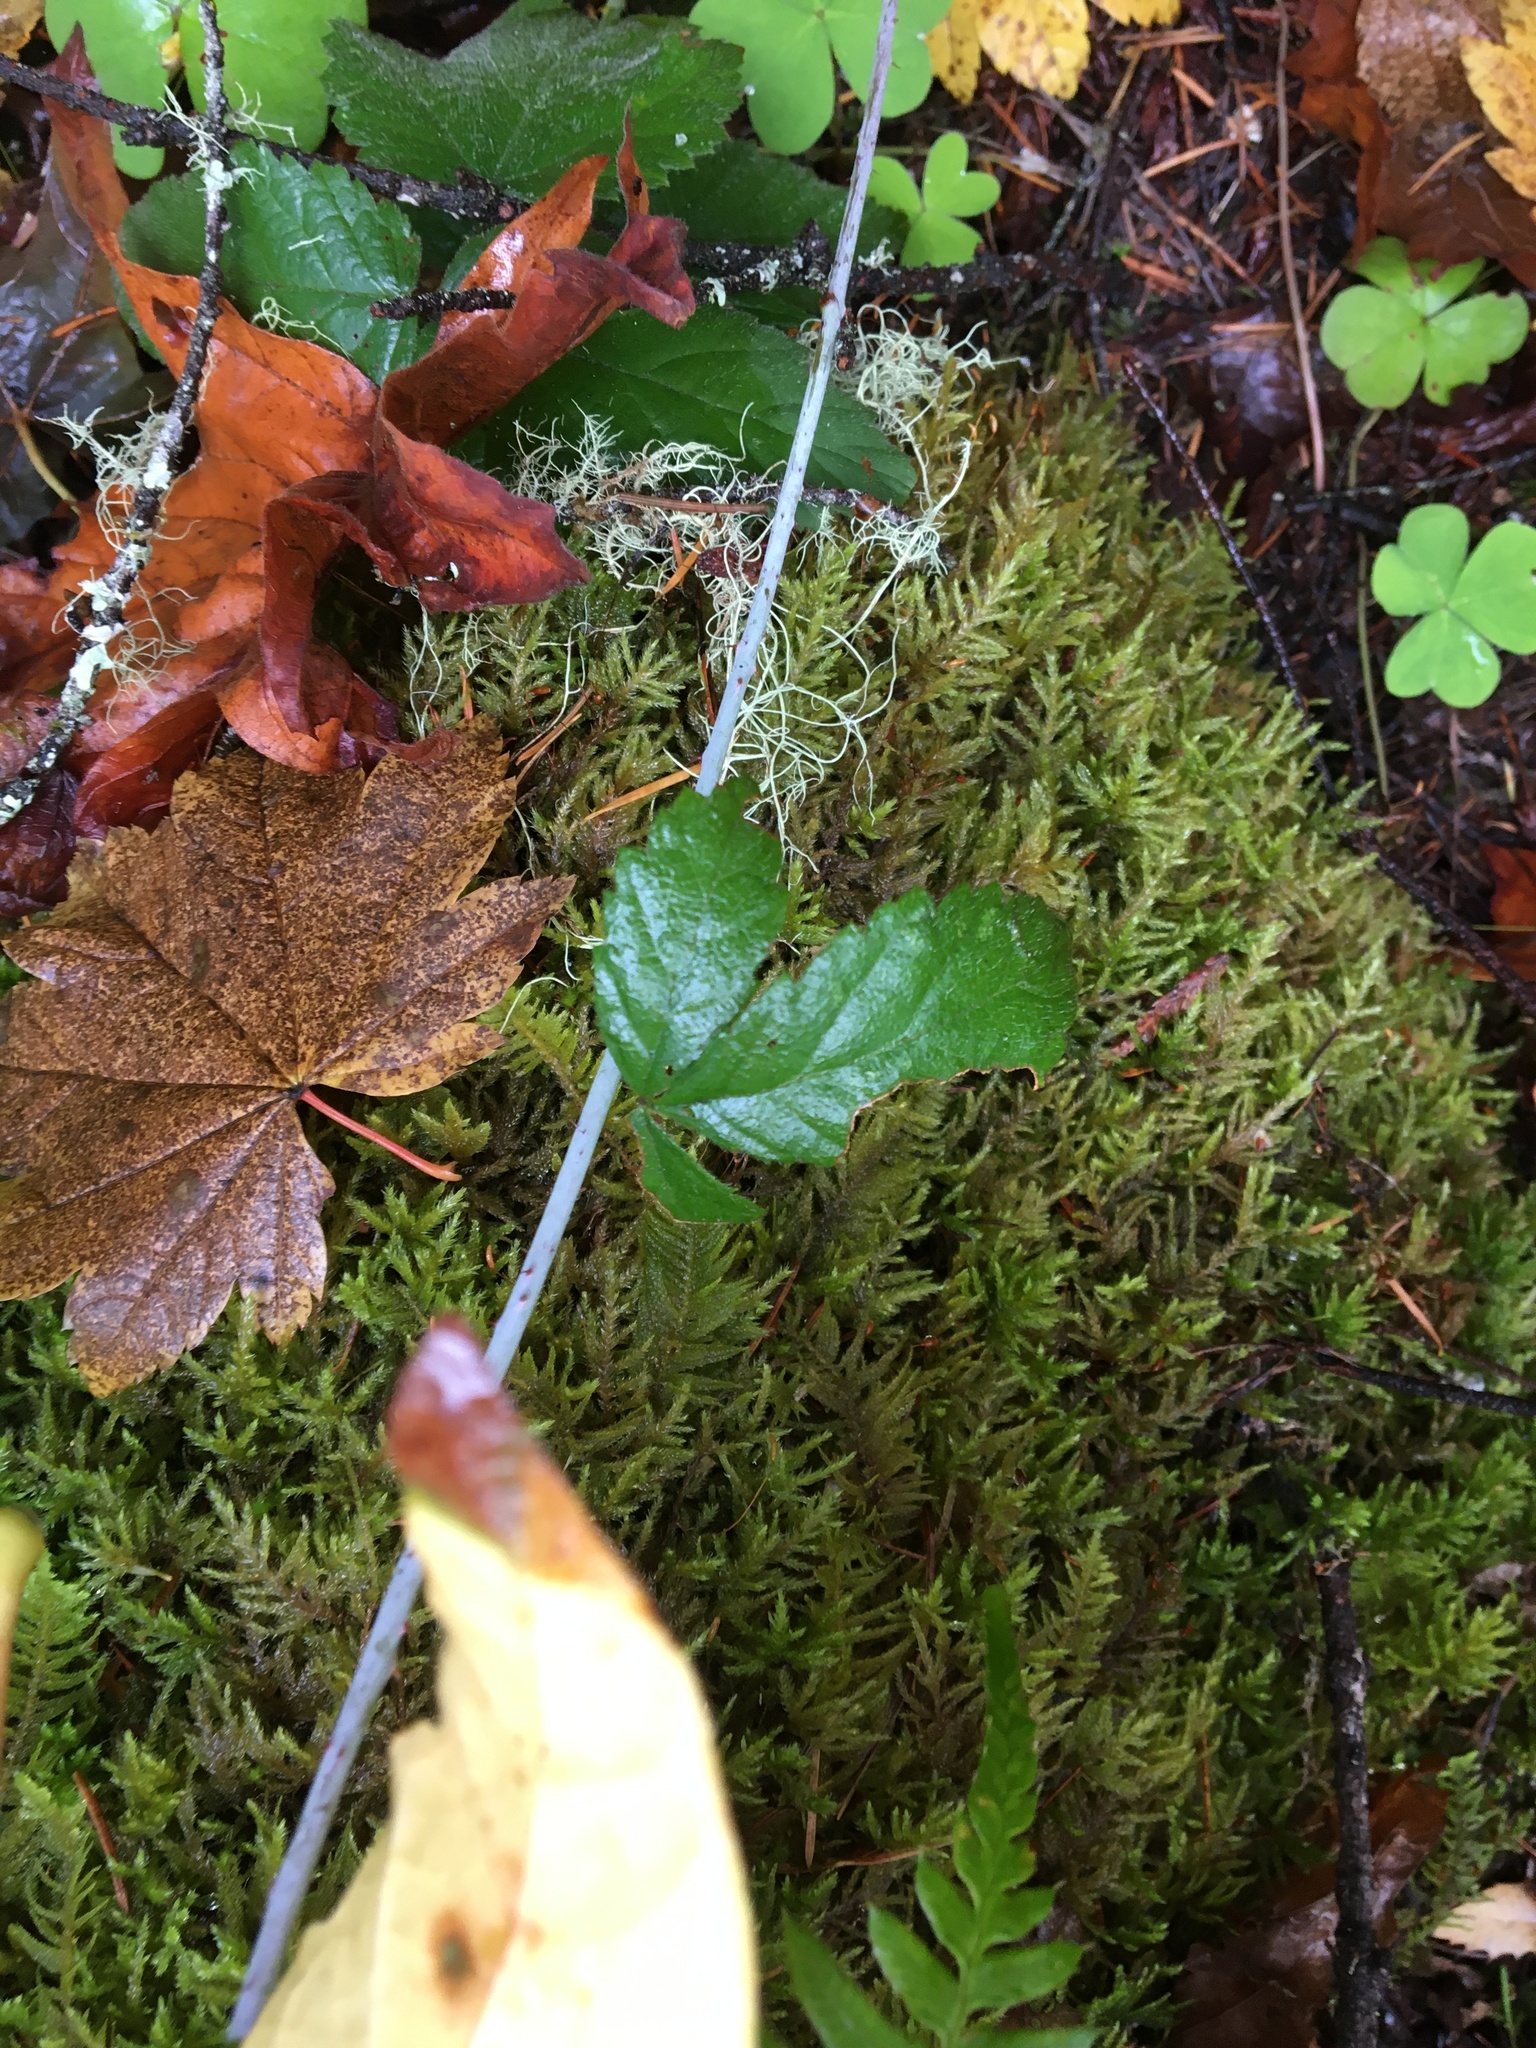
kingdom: Plantae
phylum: Tracheophyta
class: Magnoliopsida
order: Rosales
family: Rosaceae
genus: Rubus
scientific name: Rubus ursinus
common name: Pacific blackberry
